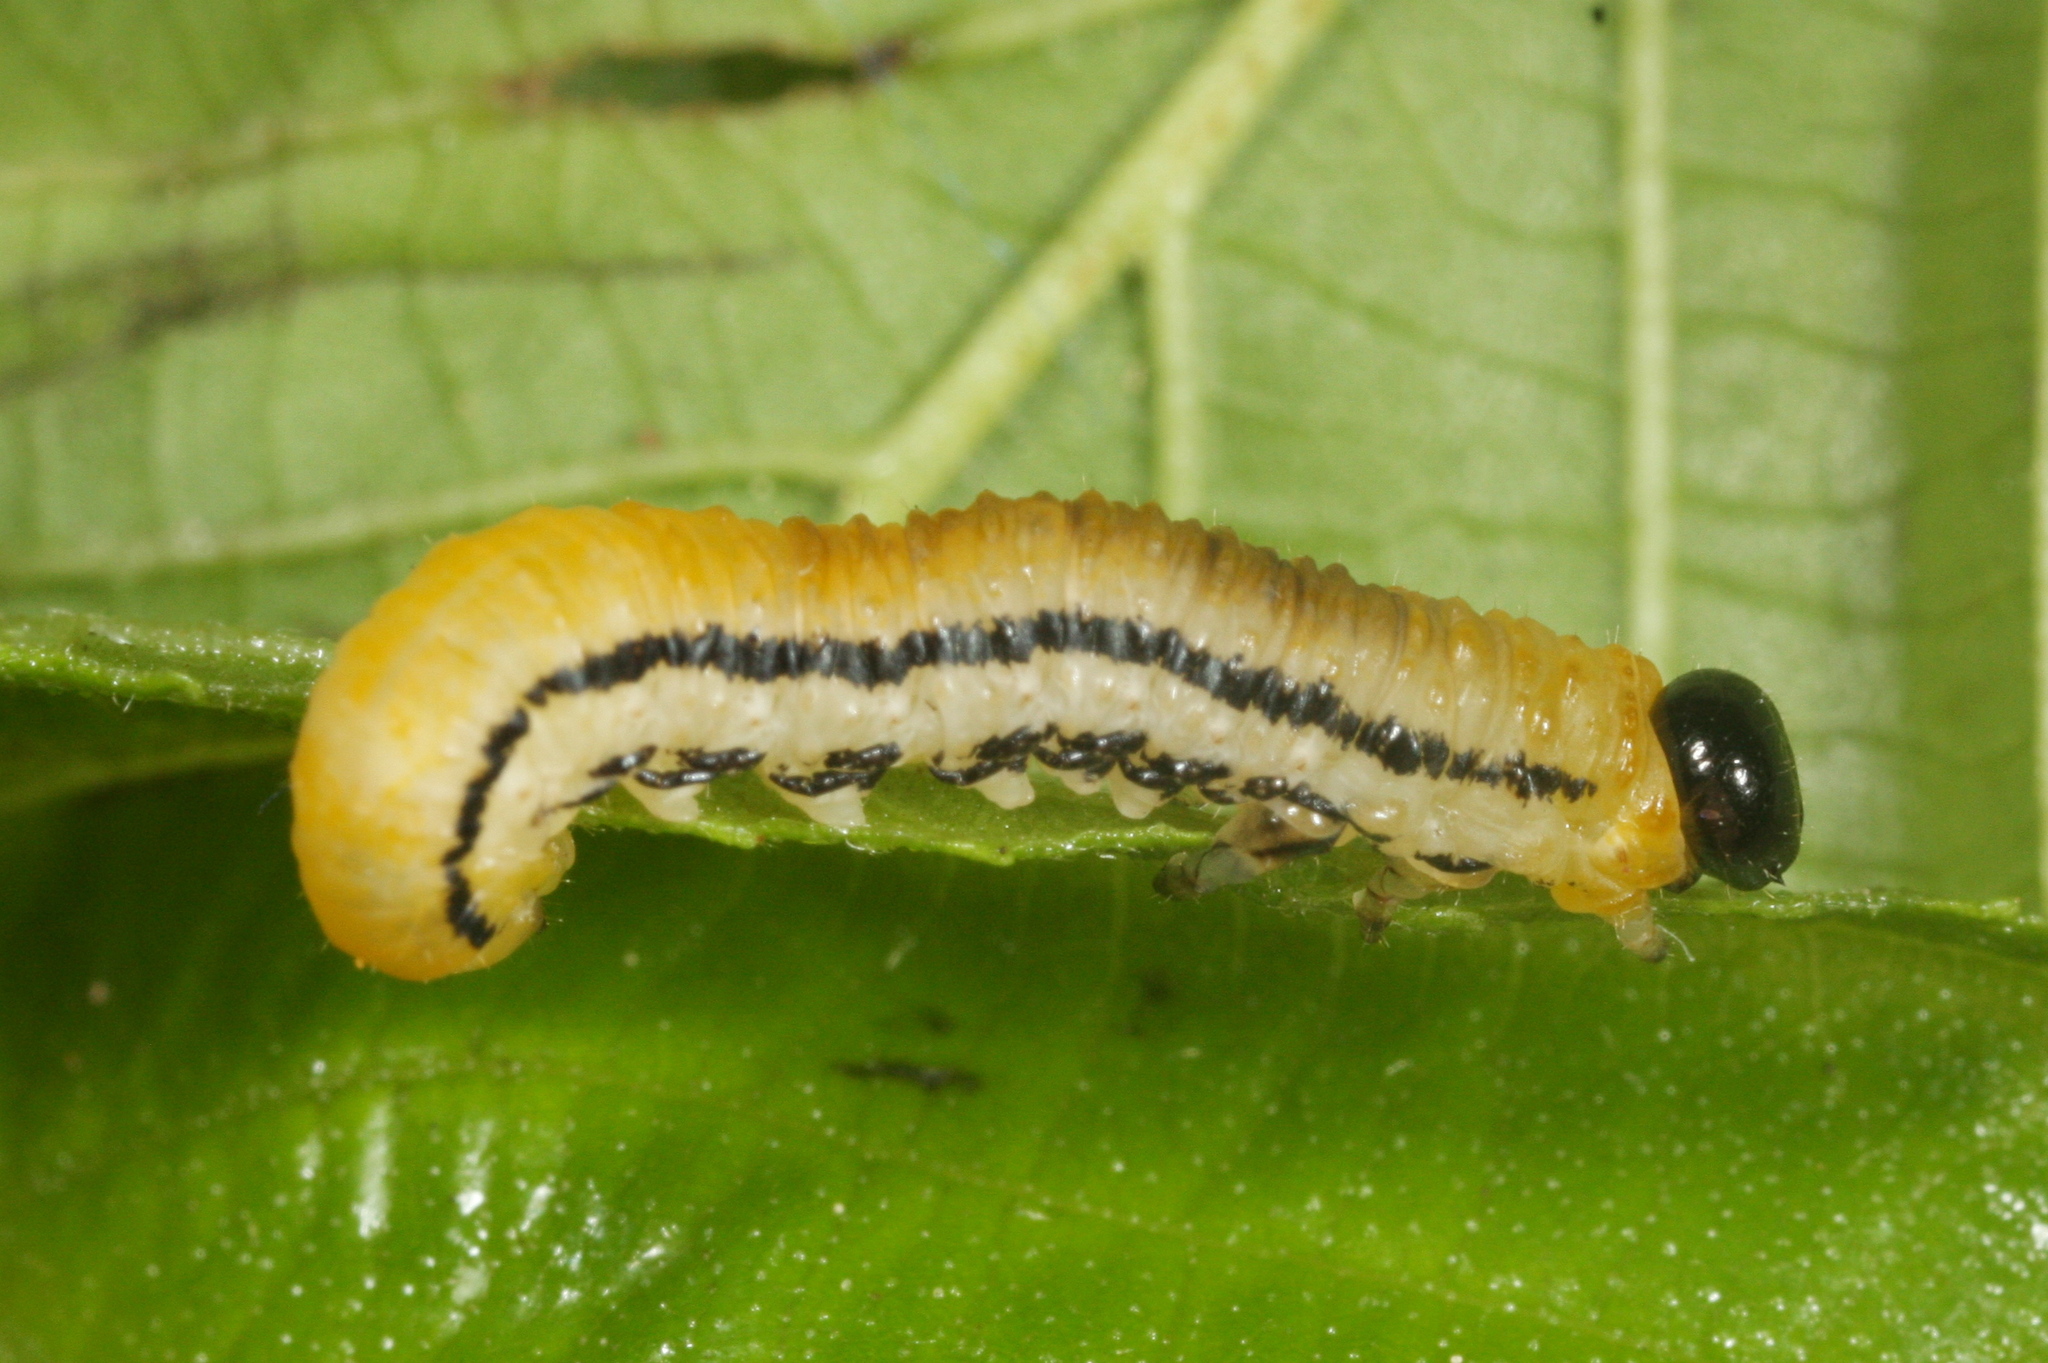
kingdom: Animalia
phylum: Arthropoda
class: Insecta
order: Hymenoptera
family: Tenthredinidae
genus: Hemichroa
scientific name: Hemichroa crocea
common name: Striped alder sawfly
